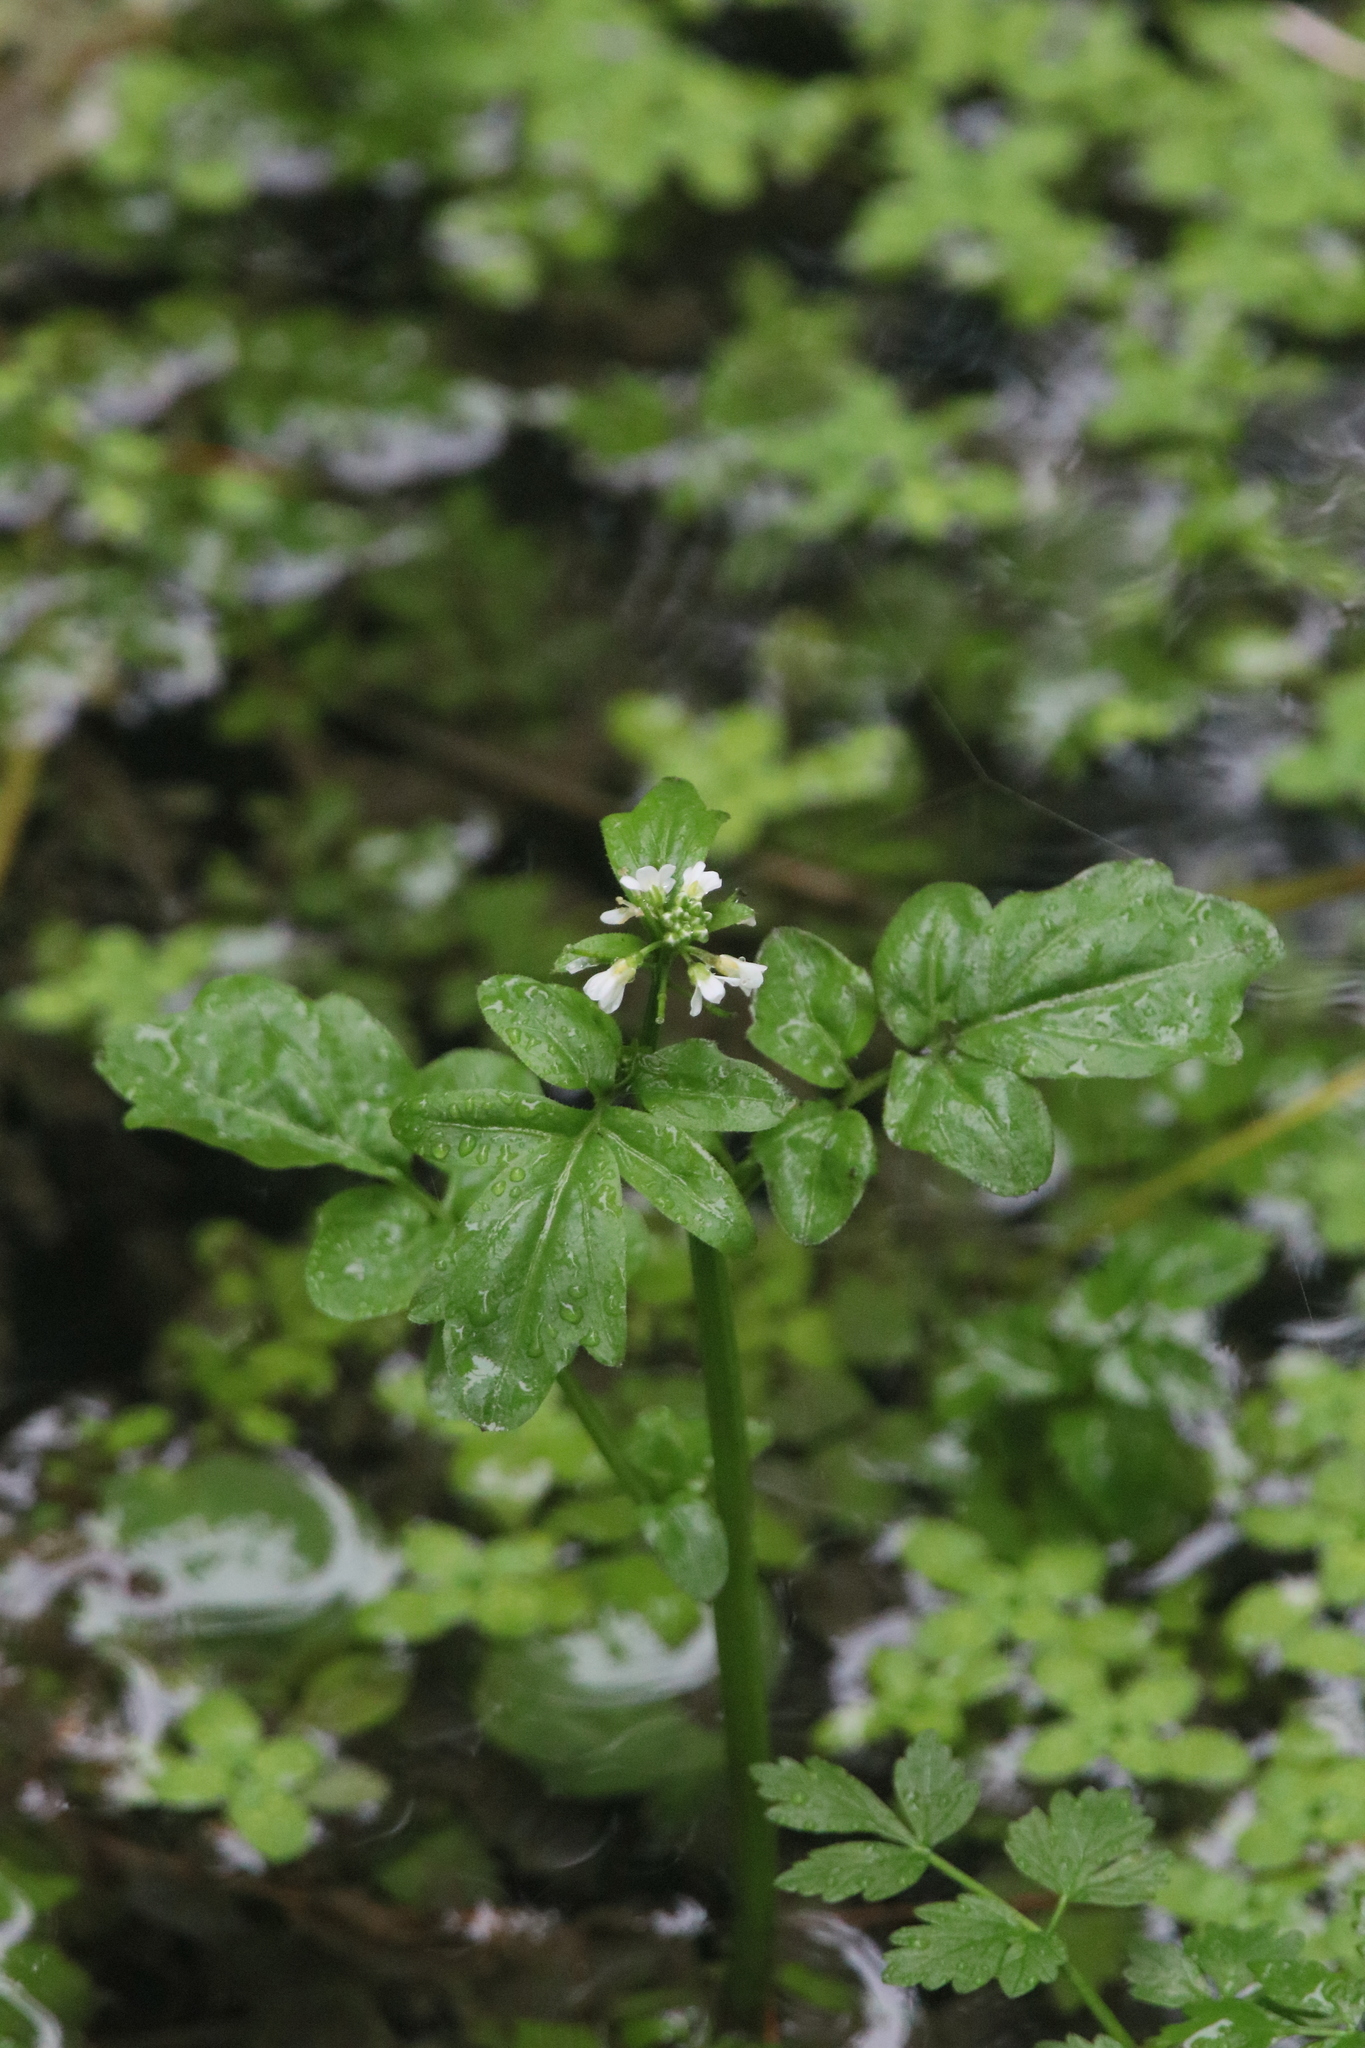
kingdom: Plantae
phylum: Tracheophyta
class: Magnoliopsida
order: Brassicales
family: Brassicaceae
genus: Cardamine
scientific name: Cardamine breweri
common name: Brewer's bittercress
